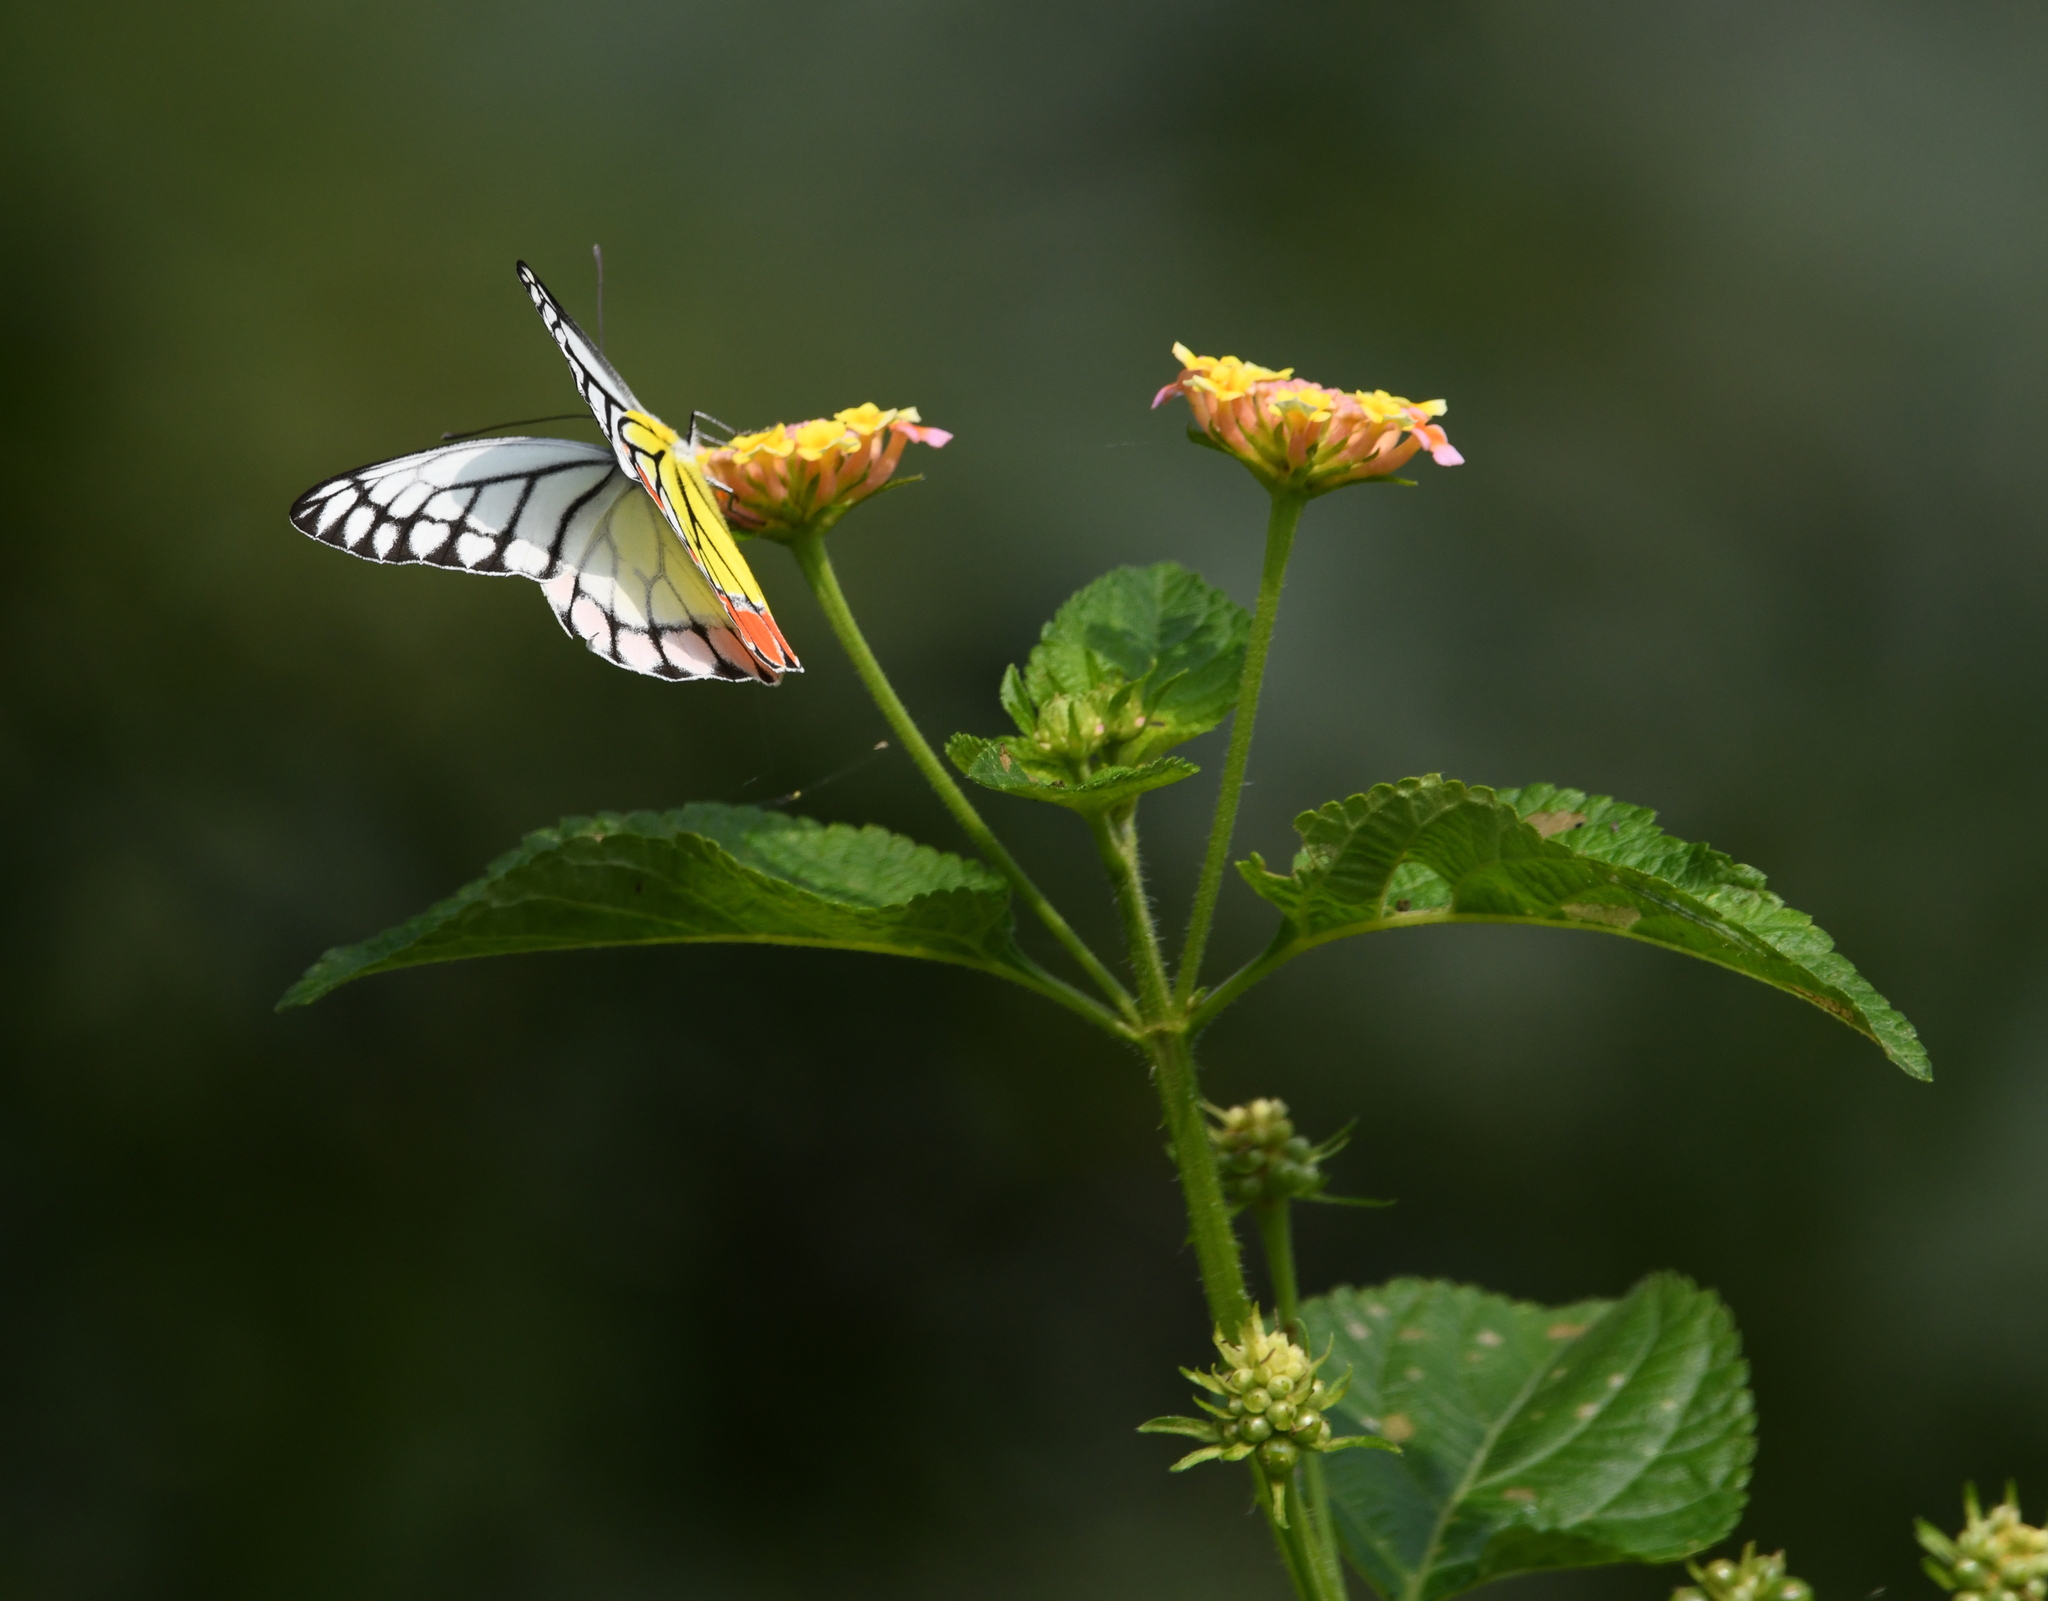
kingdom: Animalia
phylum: Arthropoda
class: Insecta
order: Lepidoptera
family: Pieridae
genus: Delias
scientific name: Delias eucharis
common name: Common jezebel
